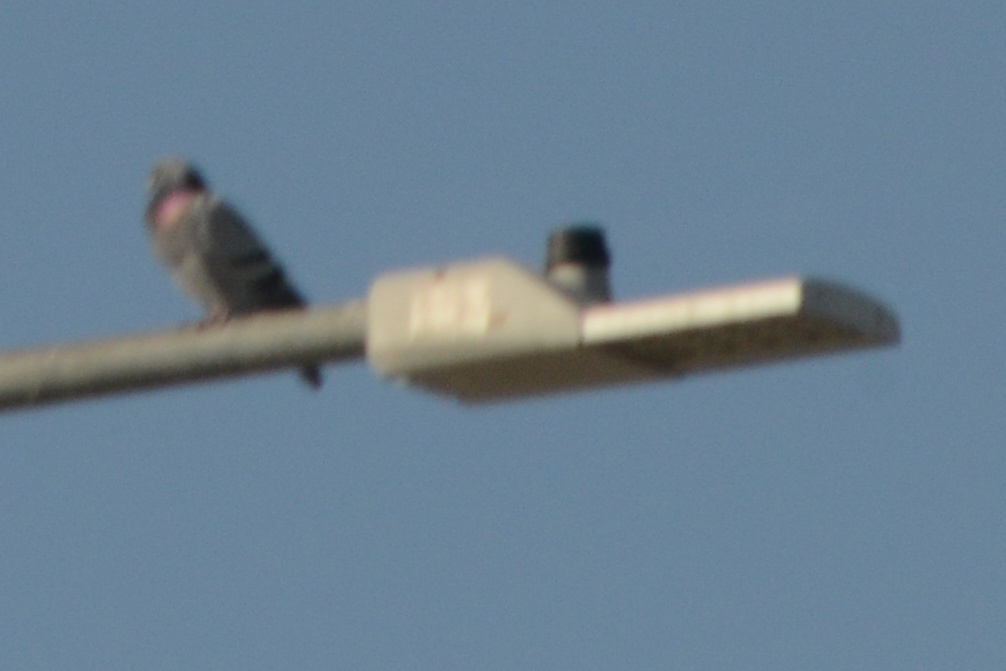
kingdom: Animalia
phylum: Chordata
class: Aves
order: Columbiformes
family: Columbidae
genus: Columba
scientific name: Columba livia
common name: Rock pigeon
